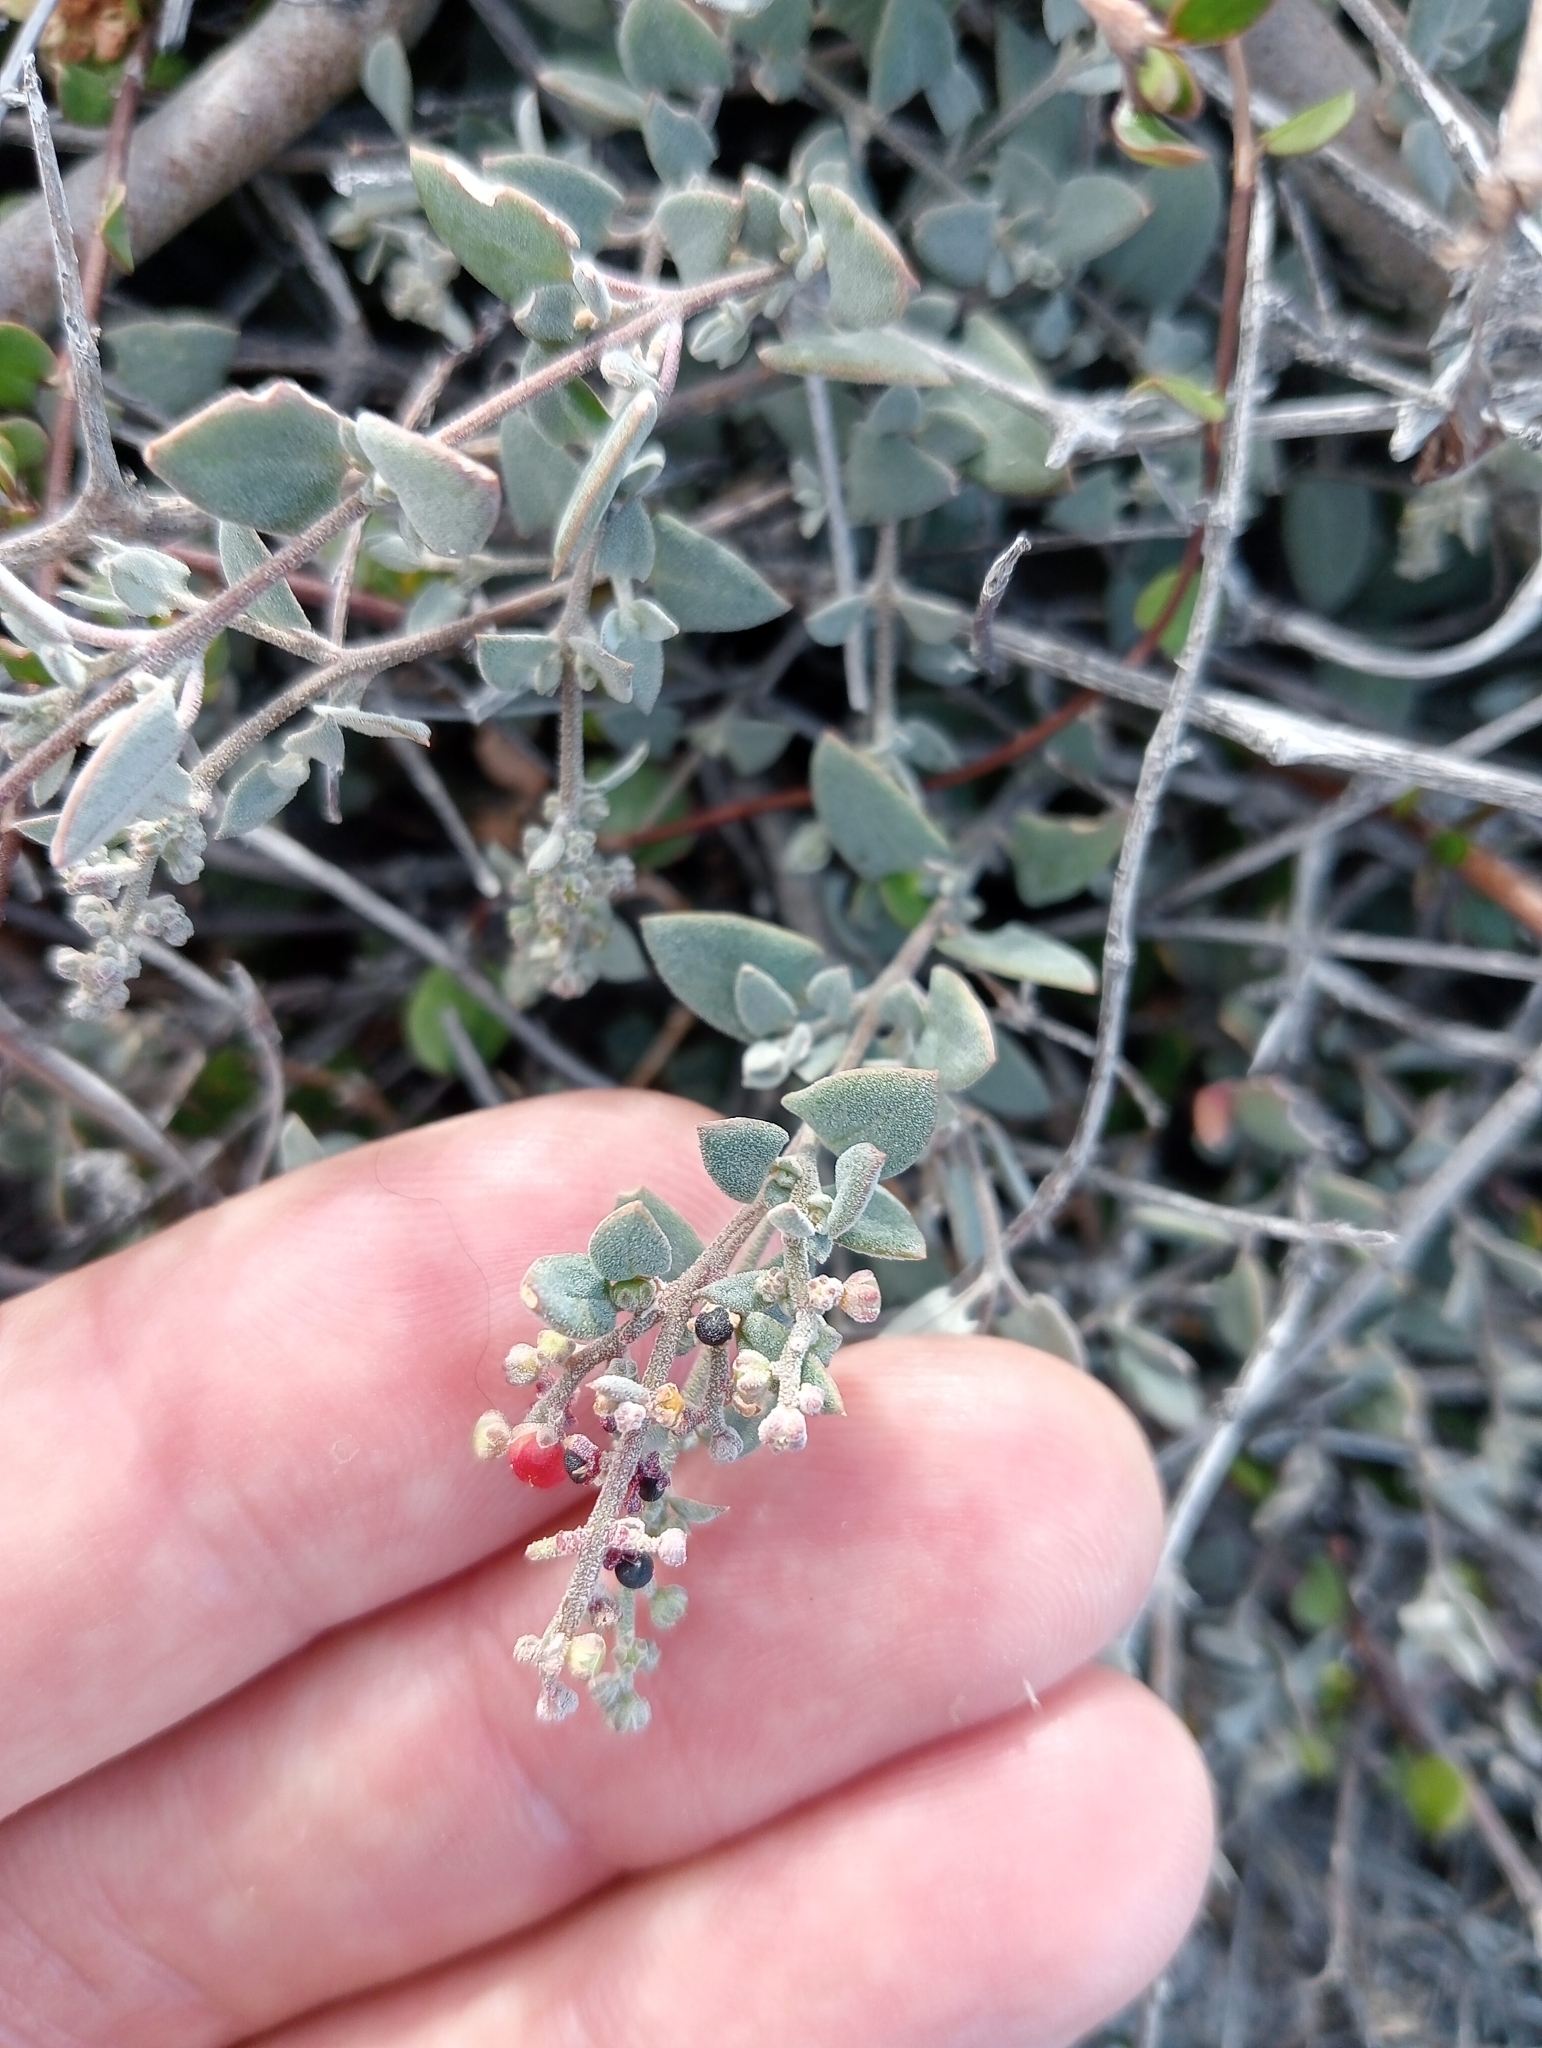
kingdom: Plantae
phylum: Tracheophyta
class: Magnoliopsida
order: Caryophyllales
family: Amaranthaceae
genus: Chenopodium
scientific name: Chenopodium triandrum
